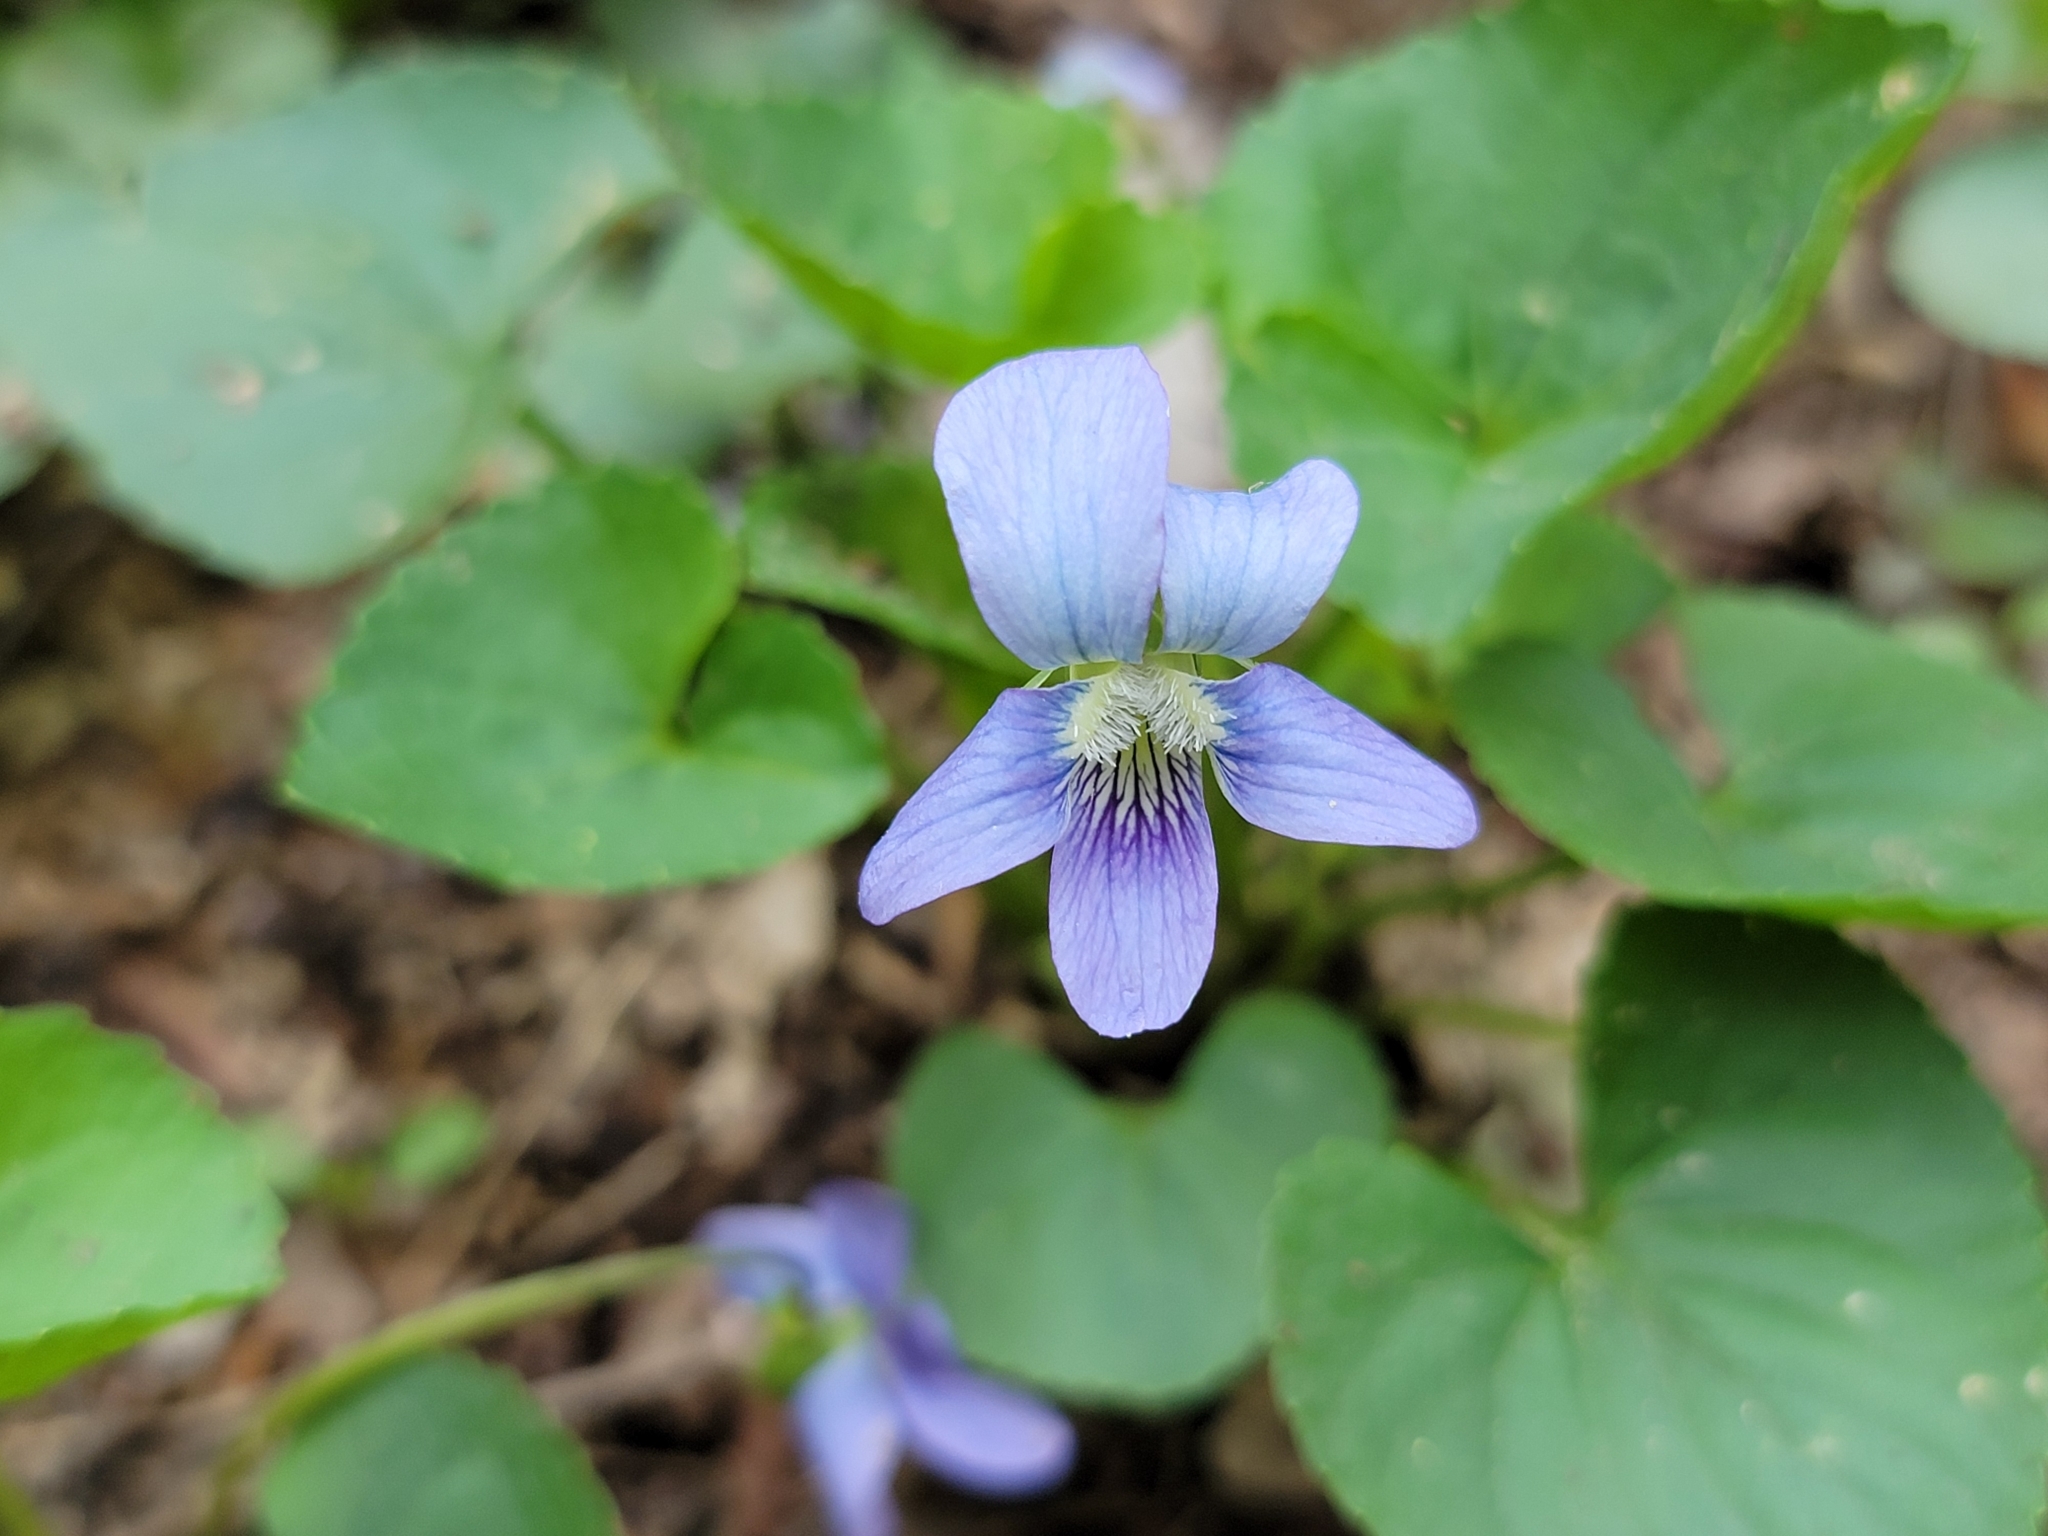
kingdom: Plantae
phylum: Tracheophyta
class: Magnoliopsida
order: Malpighiales
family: Violaceae
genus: Viola
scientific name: Viola sororia
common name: Dooryard violet
